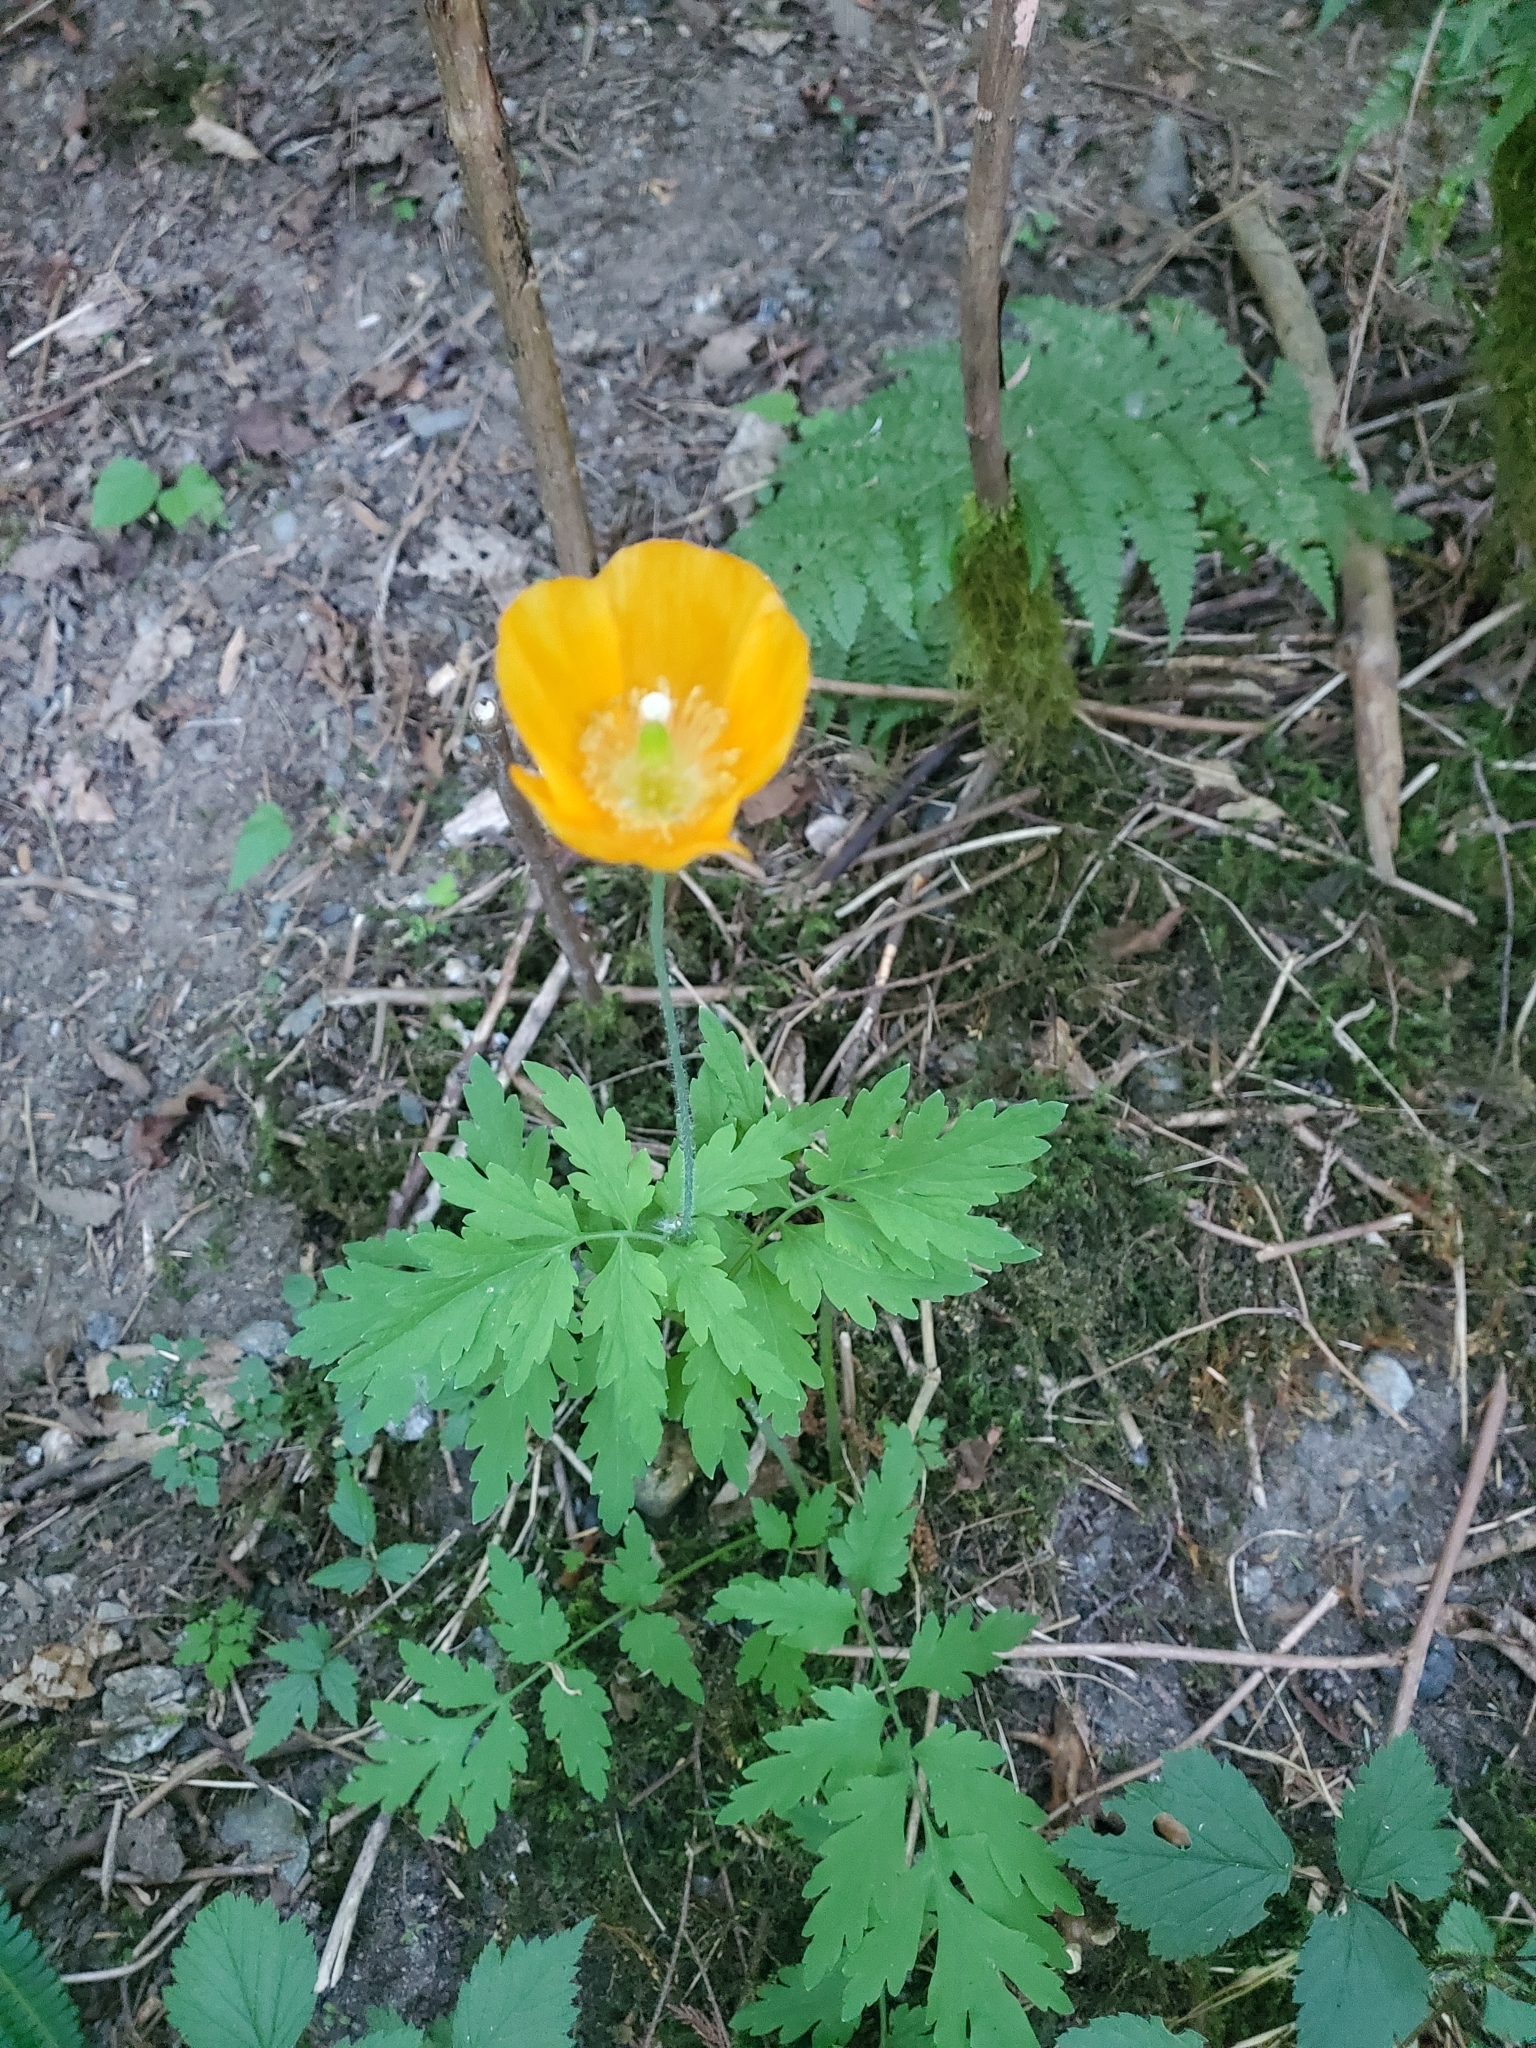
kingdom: Plantae
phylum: Tracheophyta
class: Magnoliopsida
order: Ranunculales
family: Papaveraceae
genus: Papaver
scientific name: Papaver cambricum
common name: Poppy
